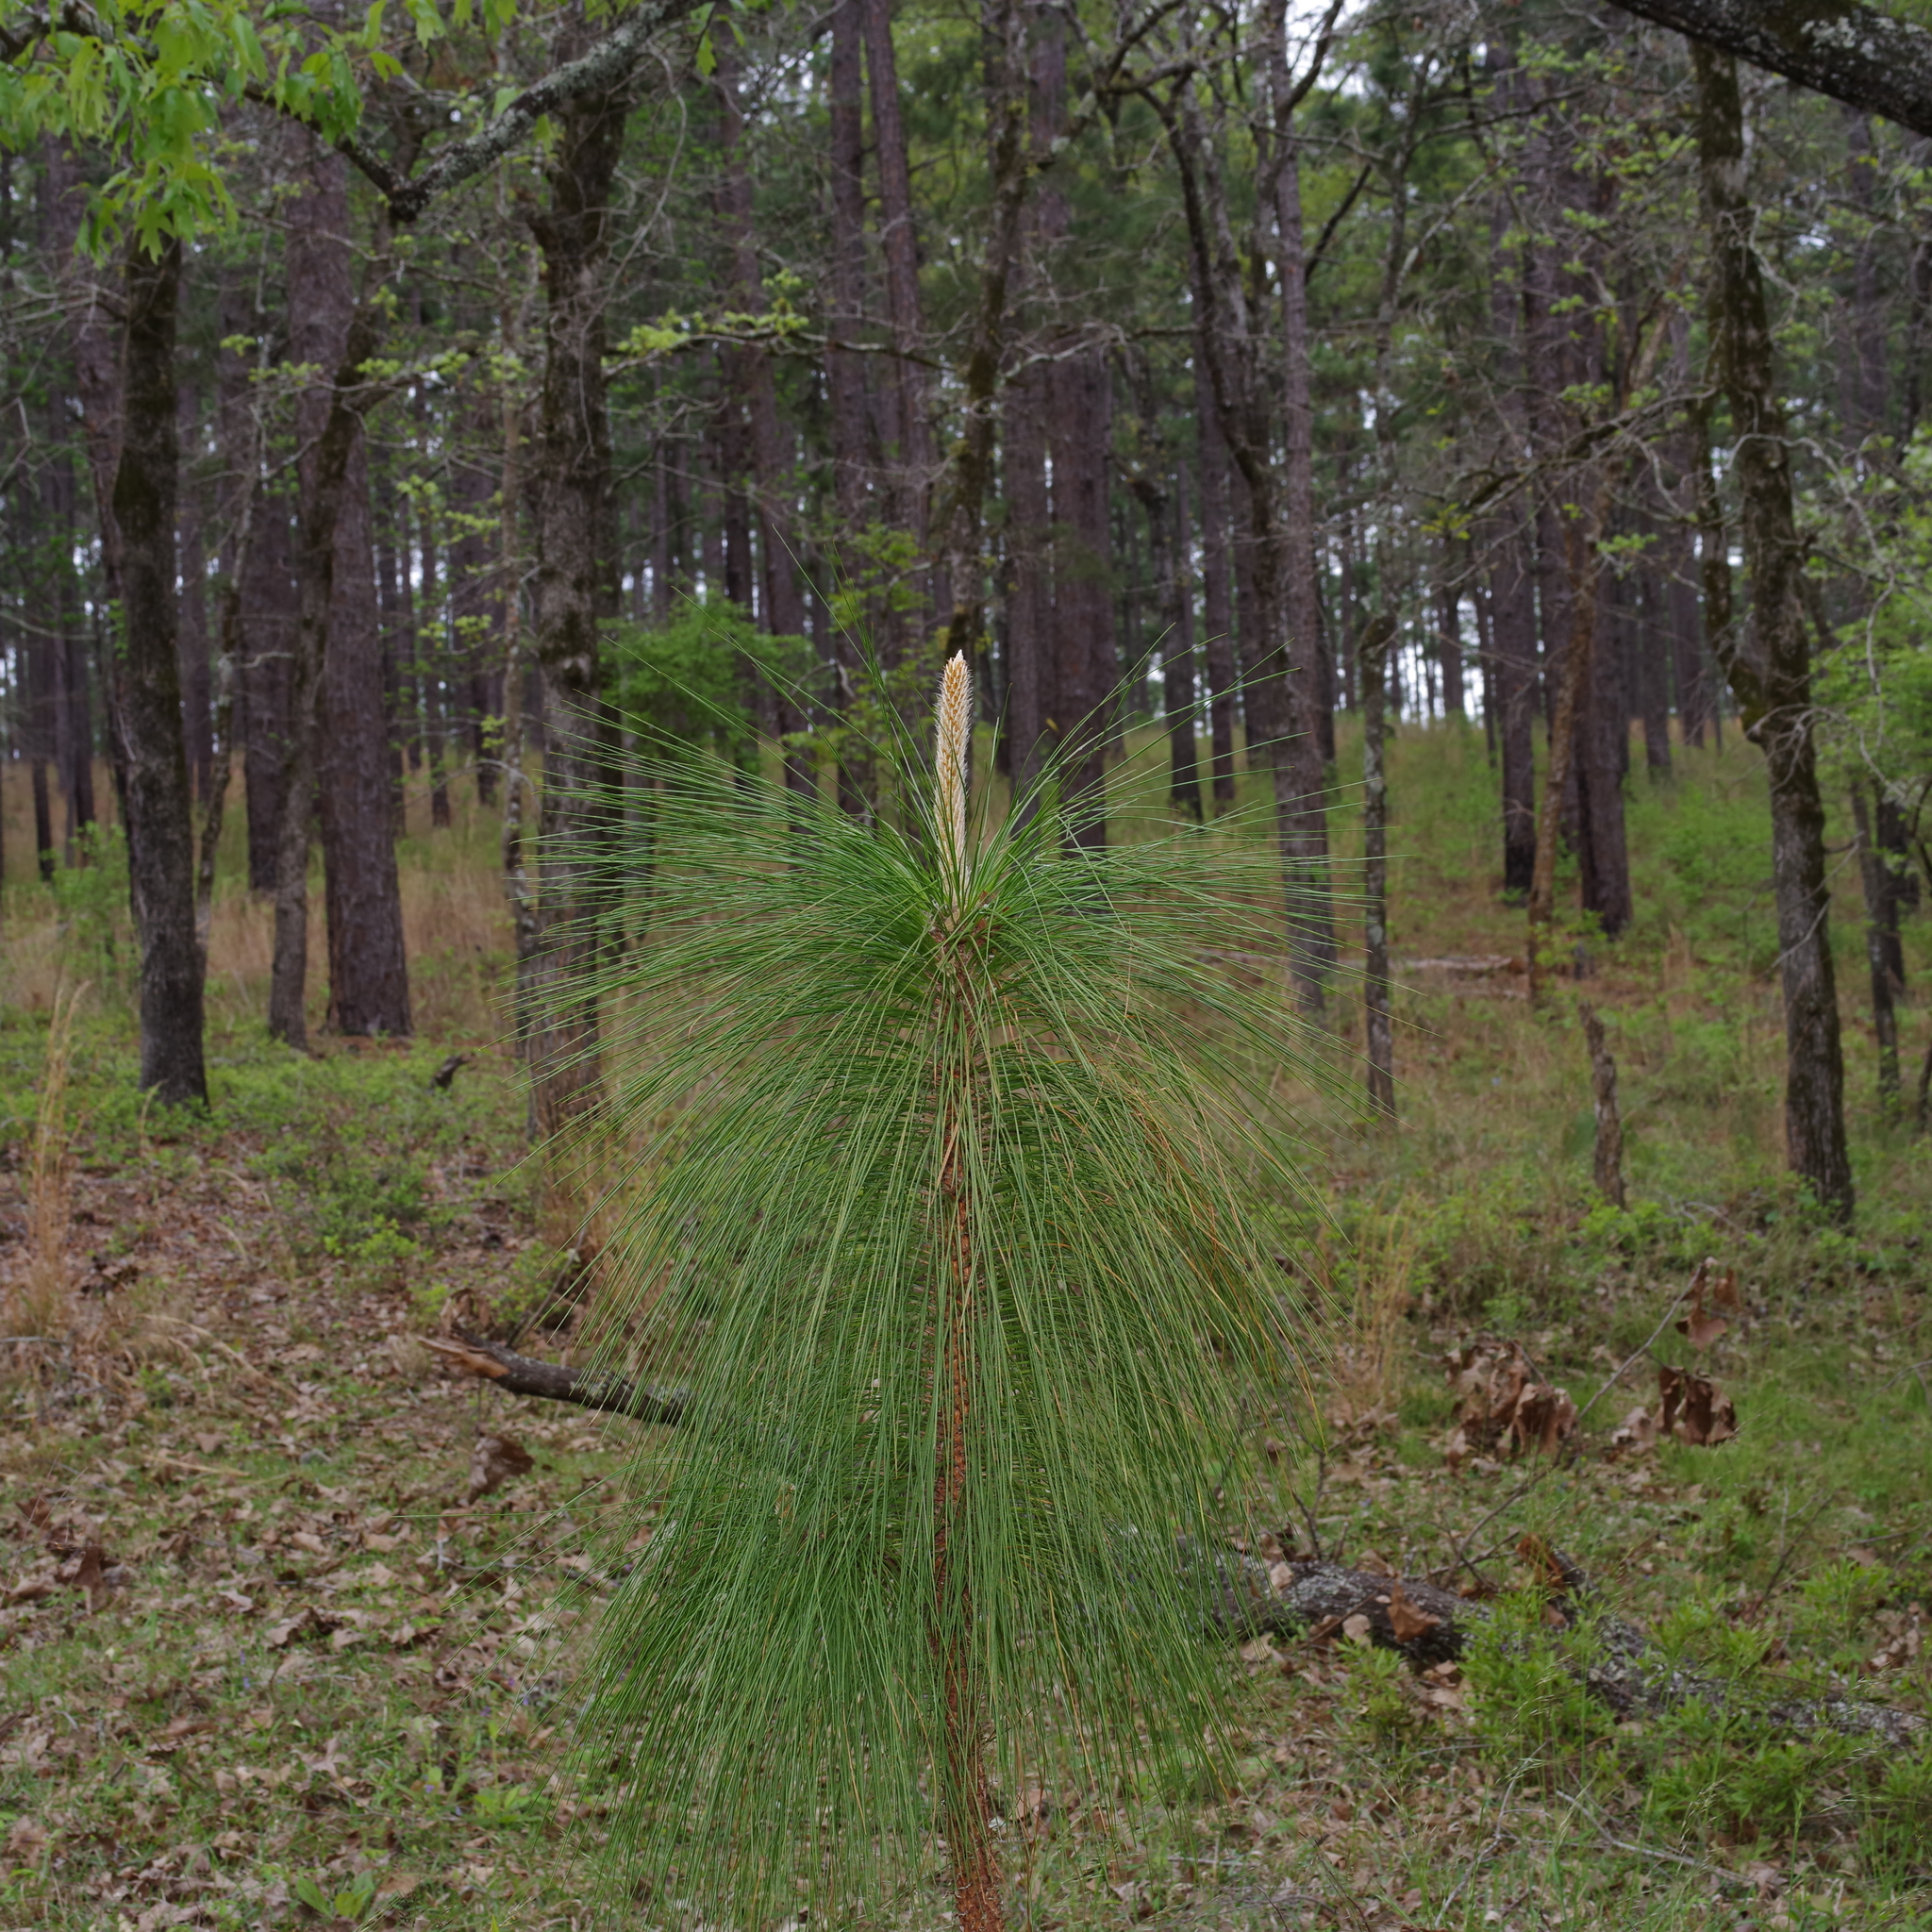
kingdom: Plantae
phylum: Tracheophyta
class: Pinopsida
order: Pinales
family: Pinaceae
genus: Pinus
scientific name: Pinus palustris
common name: Longleaf pine
